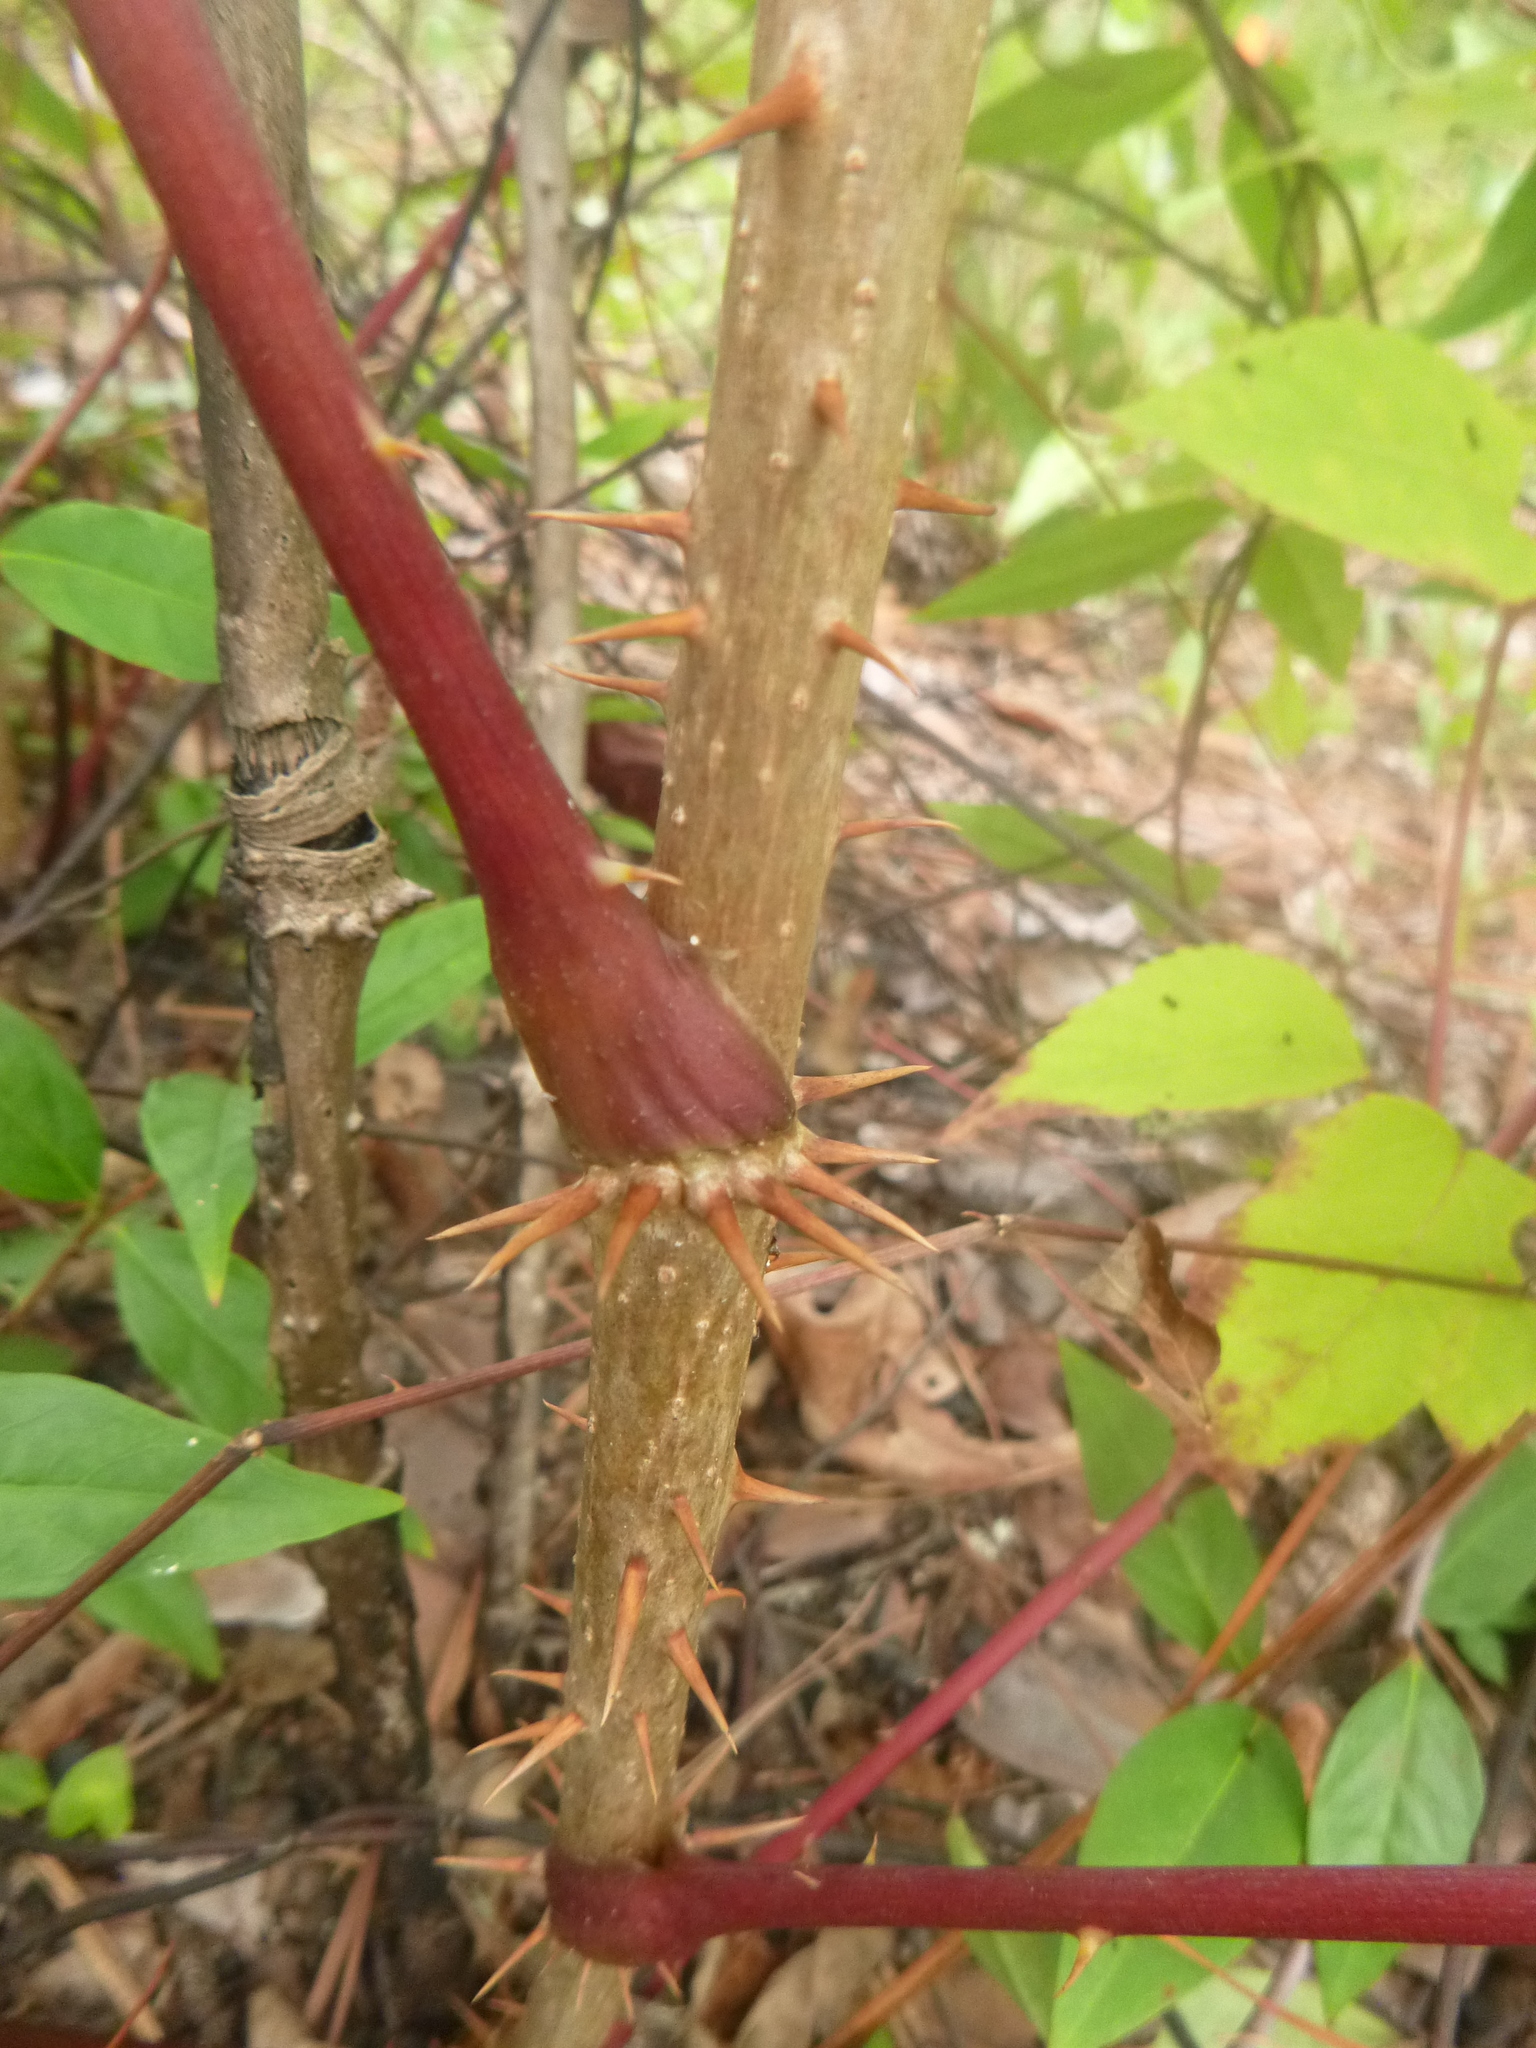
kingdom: Plantae
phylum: Tracheophyta
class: Magnoliopsida
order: Apiales
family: Araliaceae
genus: Aralia
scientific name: Aralia spinosa
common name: Hercules'-club
